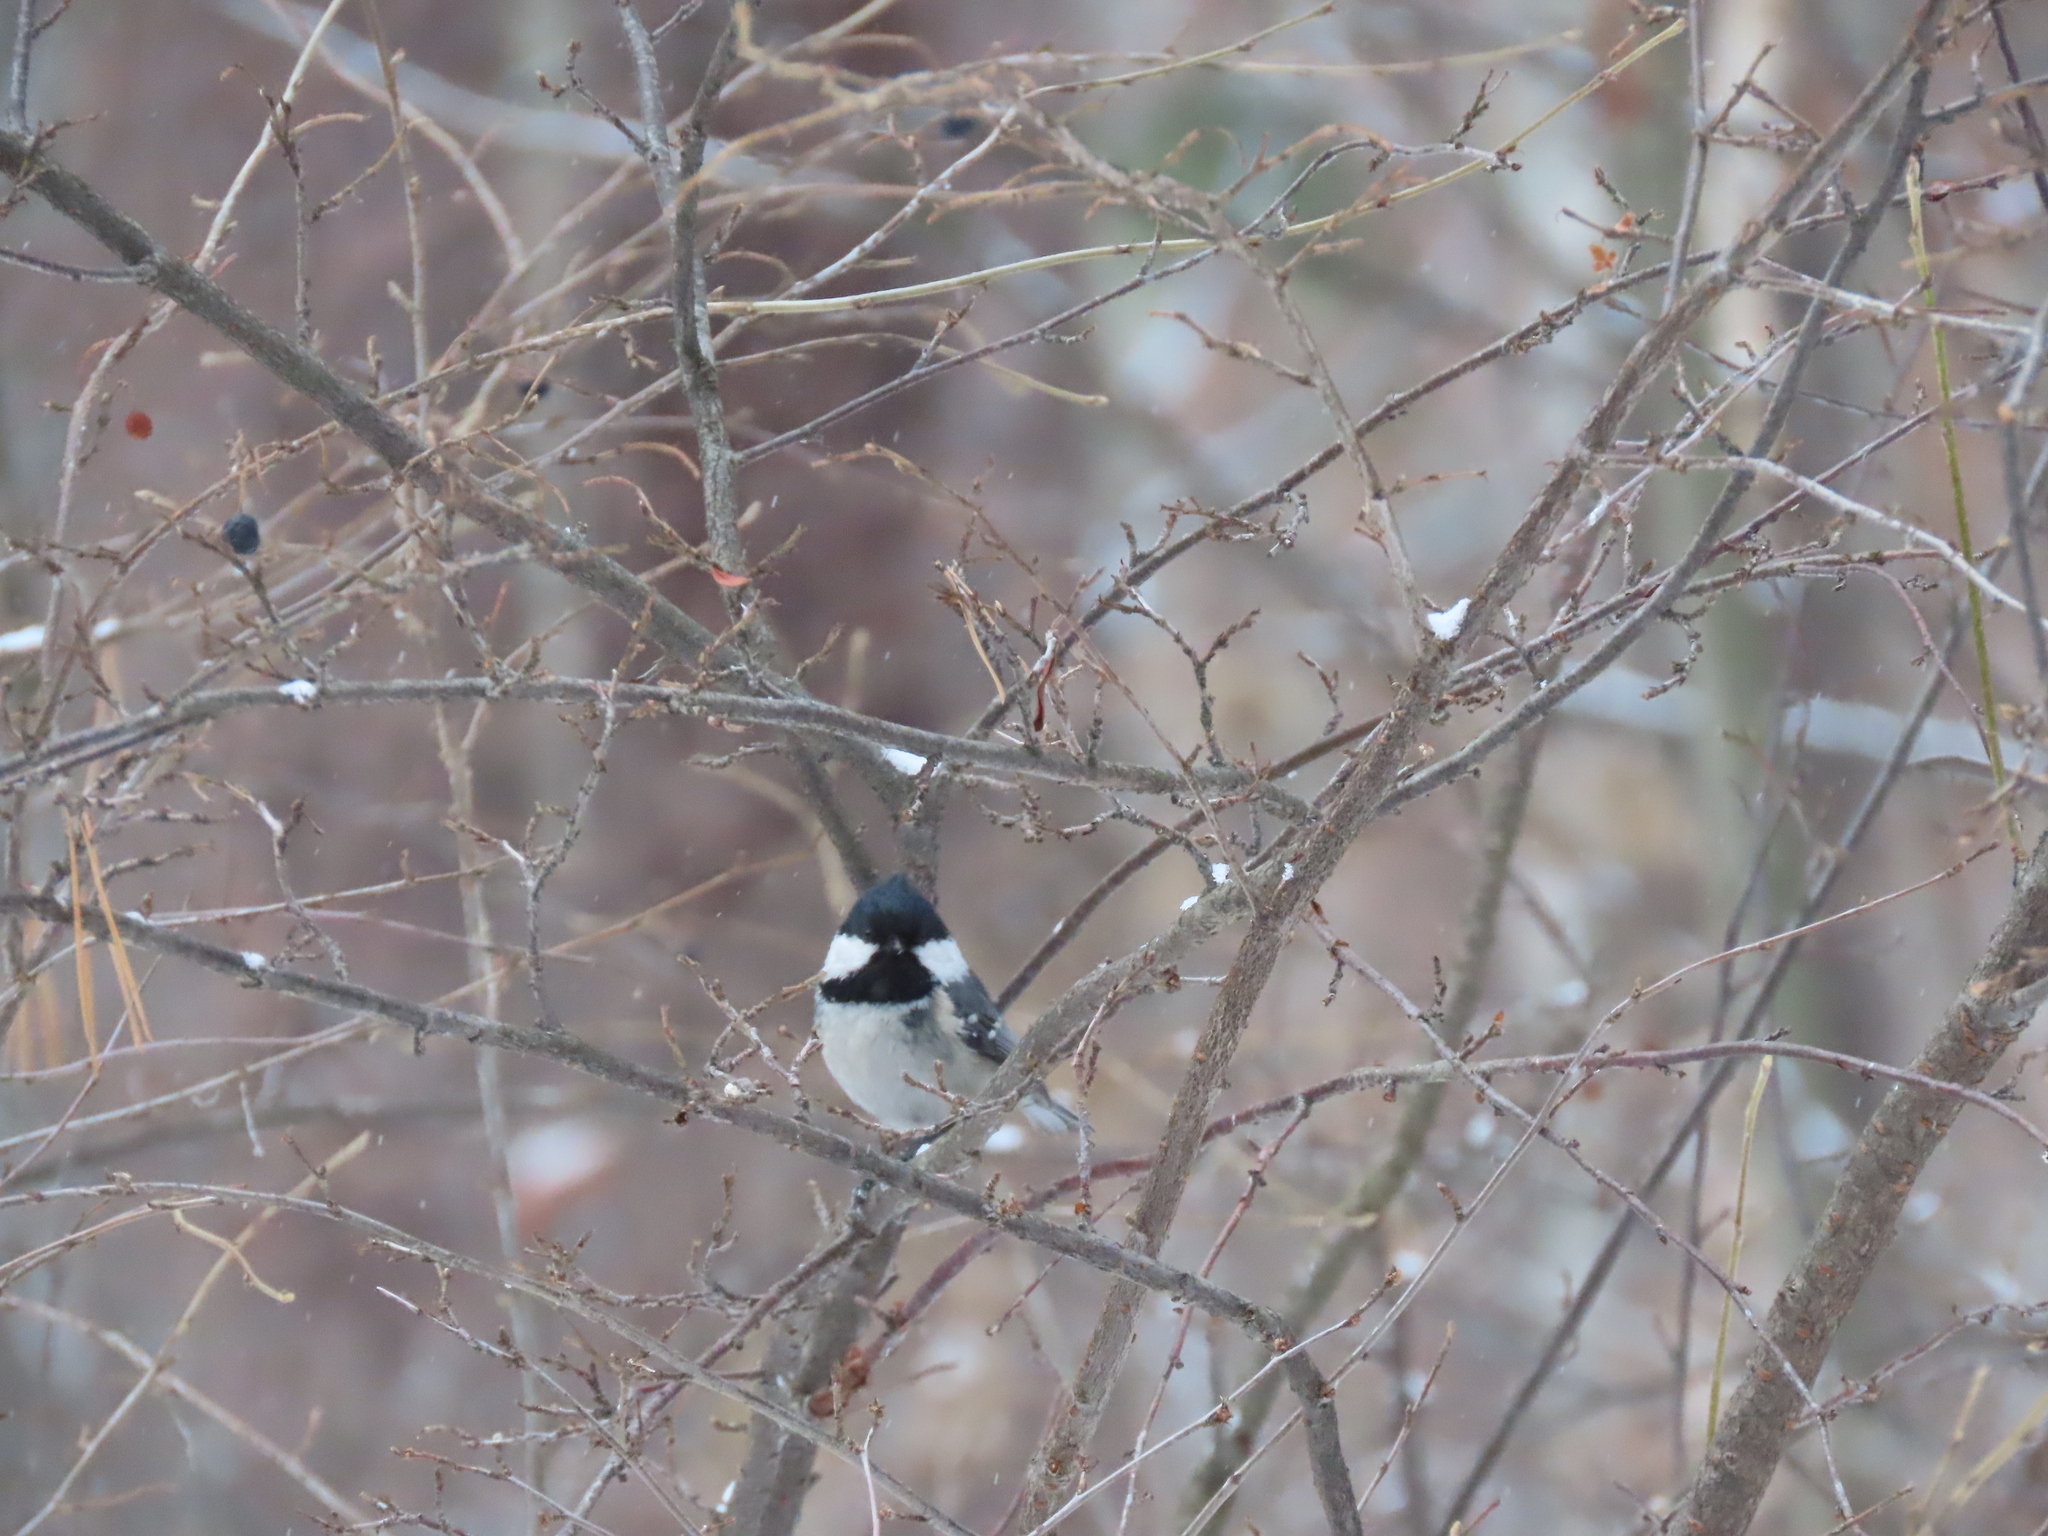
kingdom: Animalia
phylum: Chordata
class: Aves
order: Passeriformes
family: Paridae
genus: Periparus
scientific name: Periparus ater
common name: Coal tit
